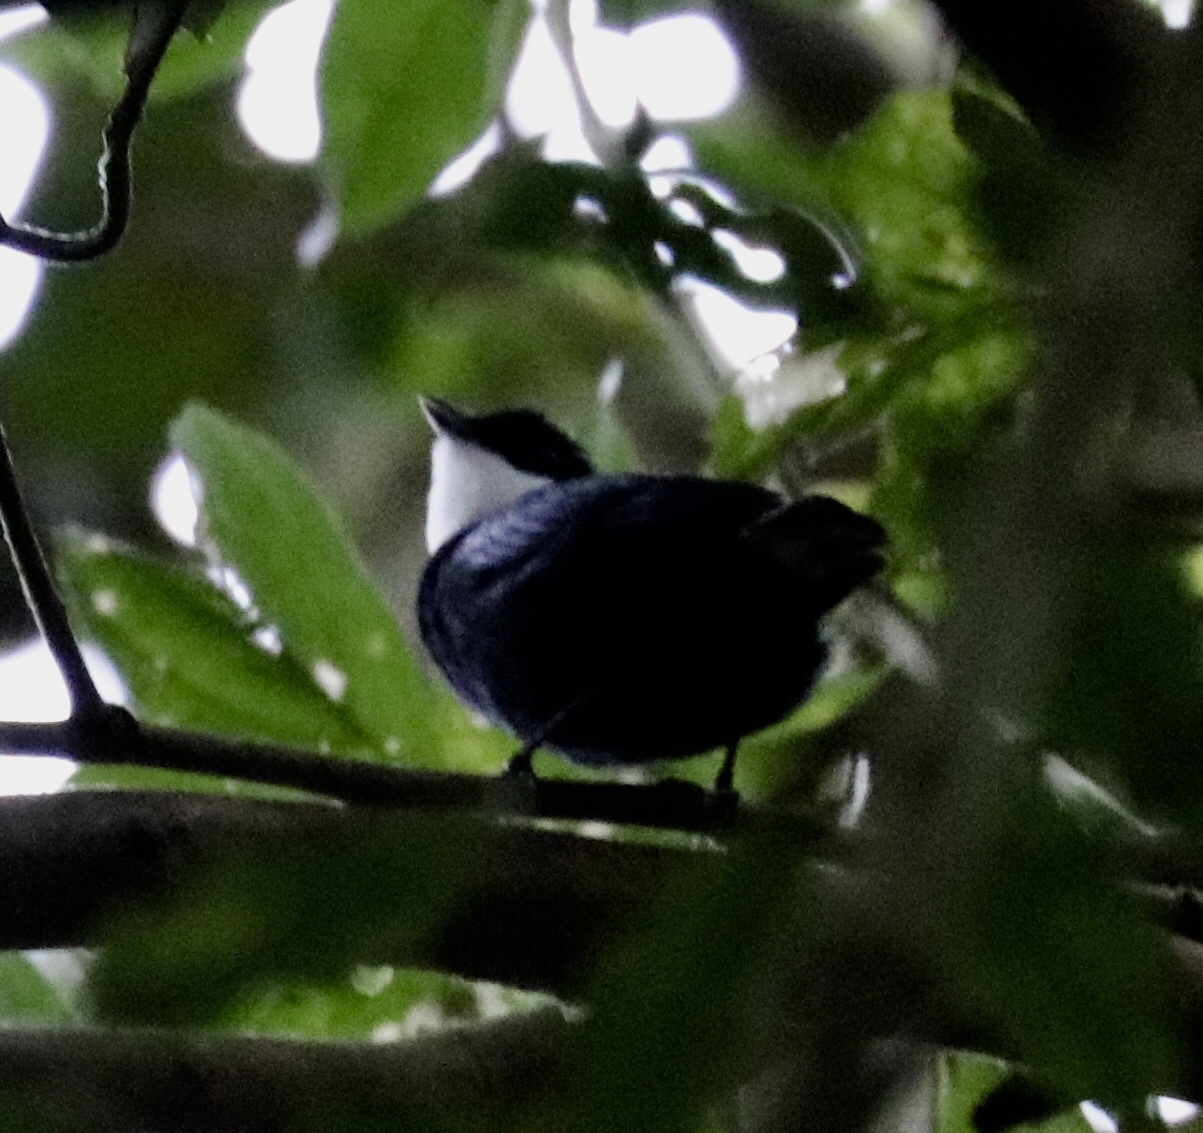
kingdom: Animalia
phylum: Chordata
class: Aves
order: Passeriformes
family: Pipridae
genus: Corapipo
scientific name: Corapipo altera
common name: White-ruffed manakin
